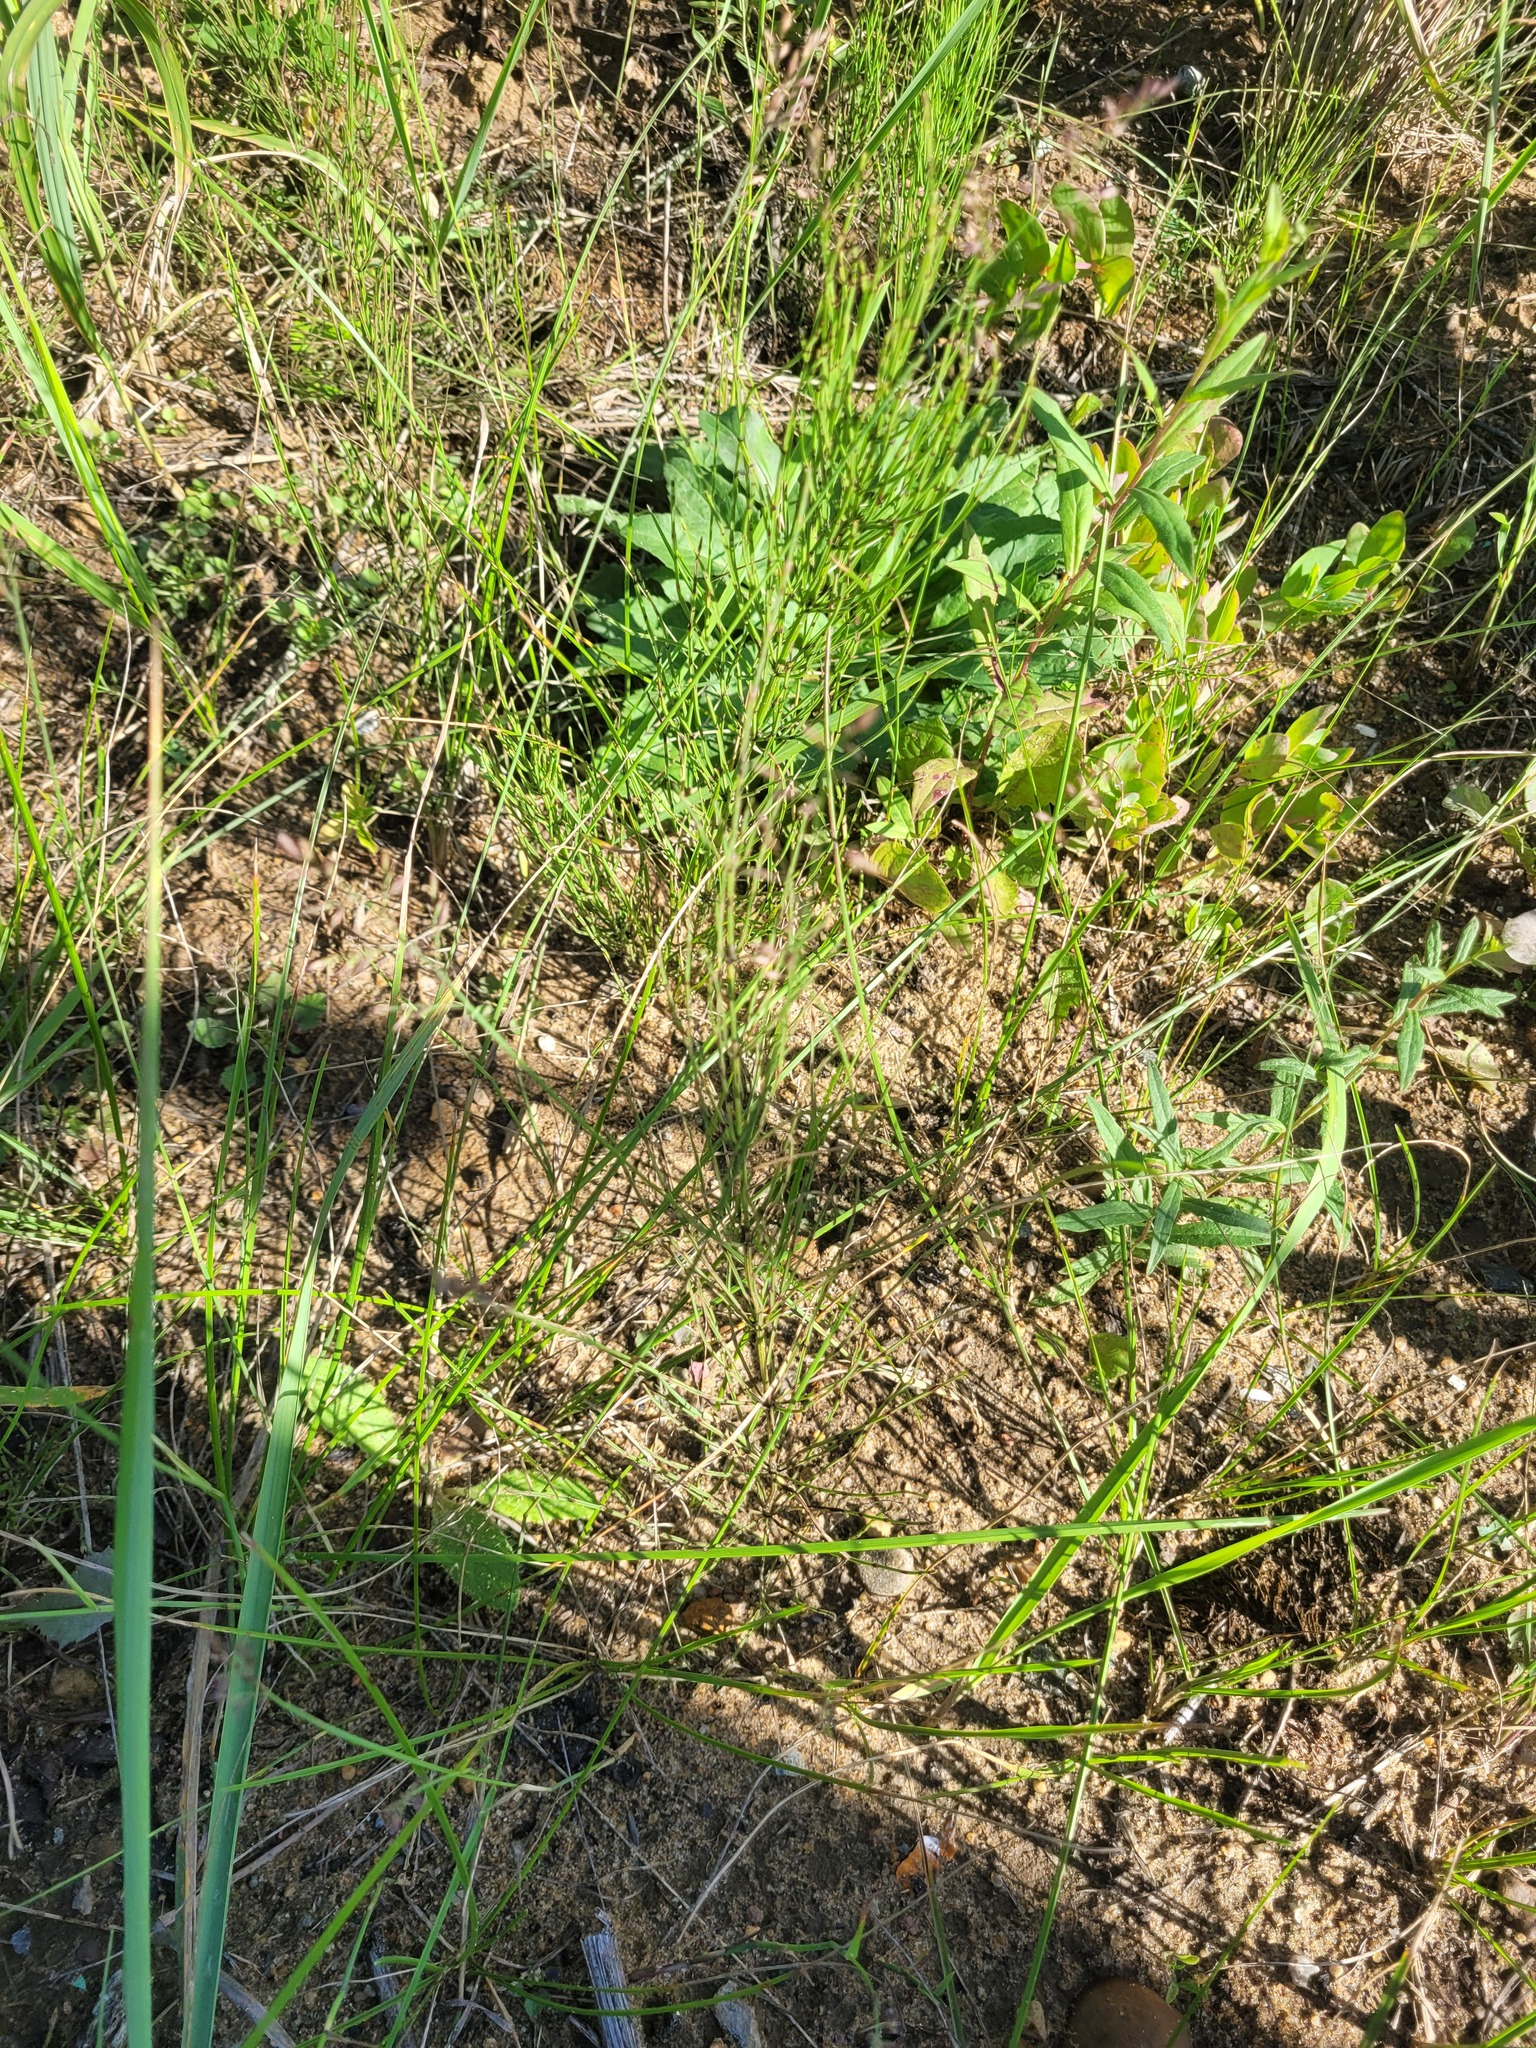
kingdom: Plantae
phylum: Tracheophyta
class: Polypodiopsida
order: Equisetales
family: Equisetaceae
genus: Equisetum
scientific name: Equisetum arvense
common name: Field horsetail
